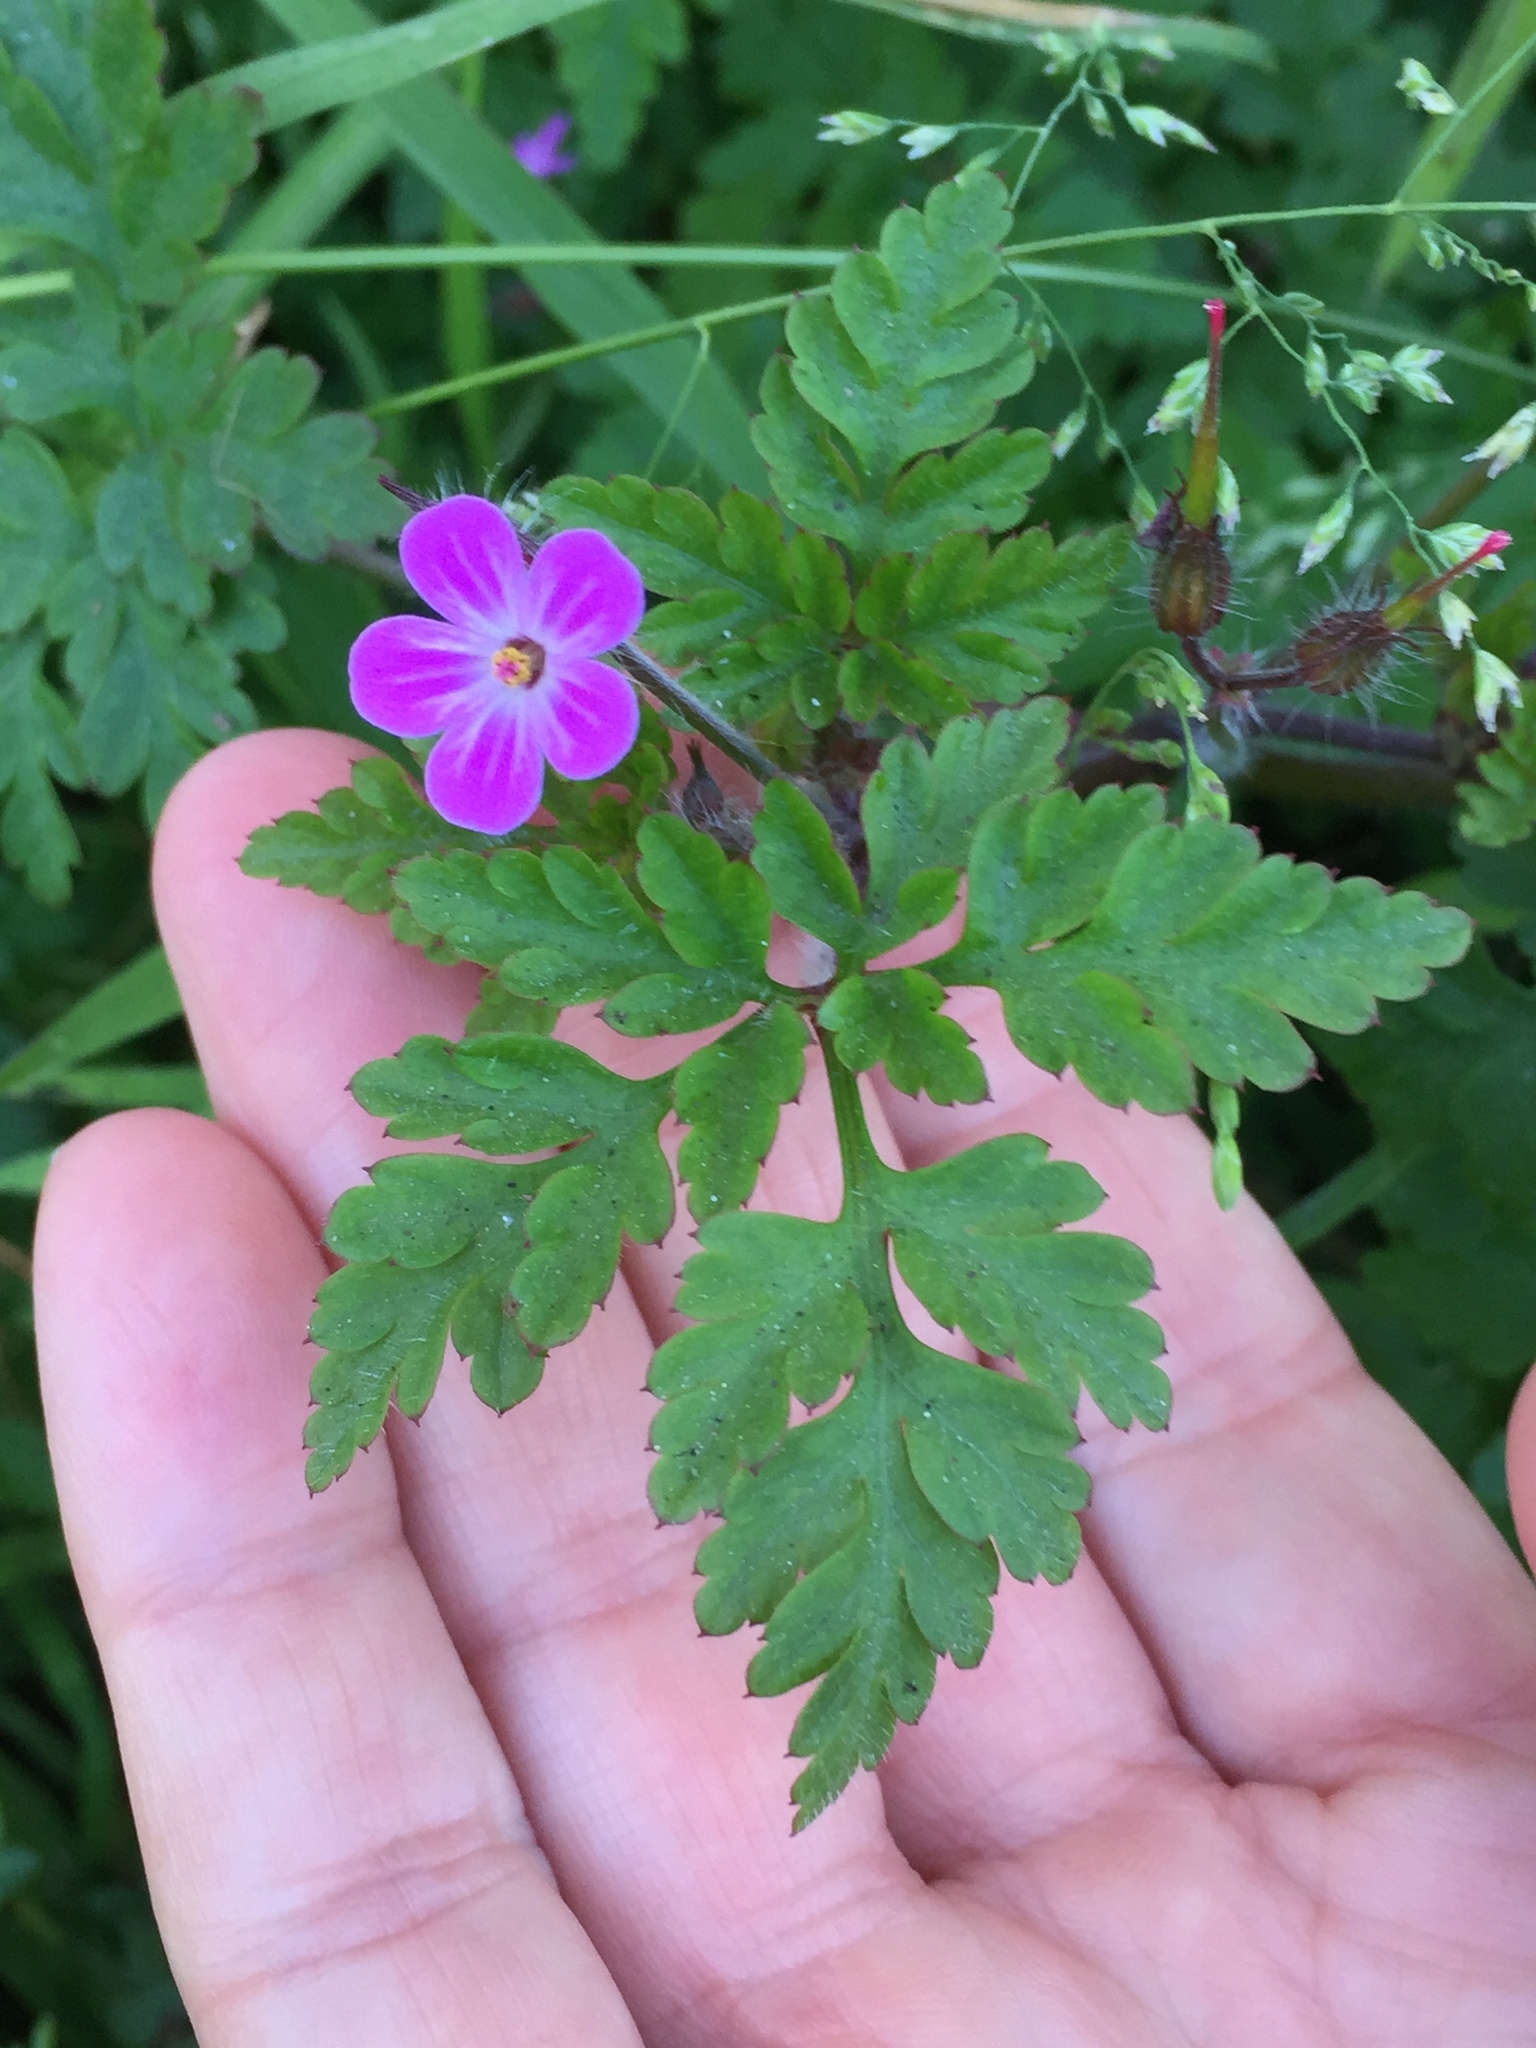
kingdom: Plantae
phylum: Tracheophyta
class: Magnoliopsida
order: Geraniales
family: Geraniaceae
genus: Geranium
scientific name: Geranium robertianum
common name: Herb-robert
